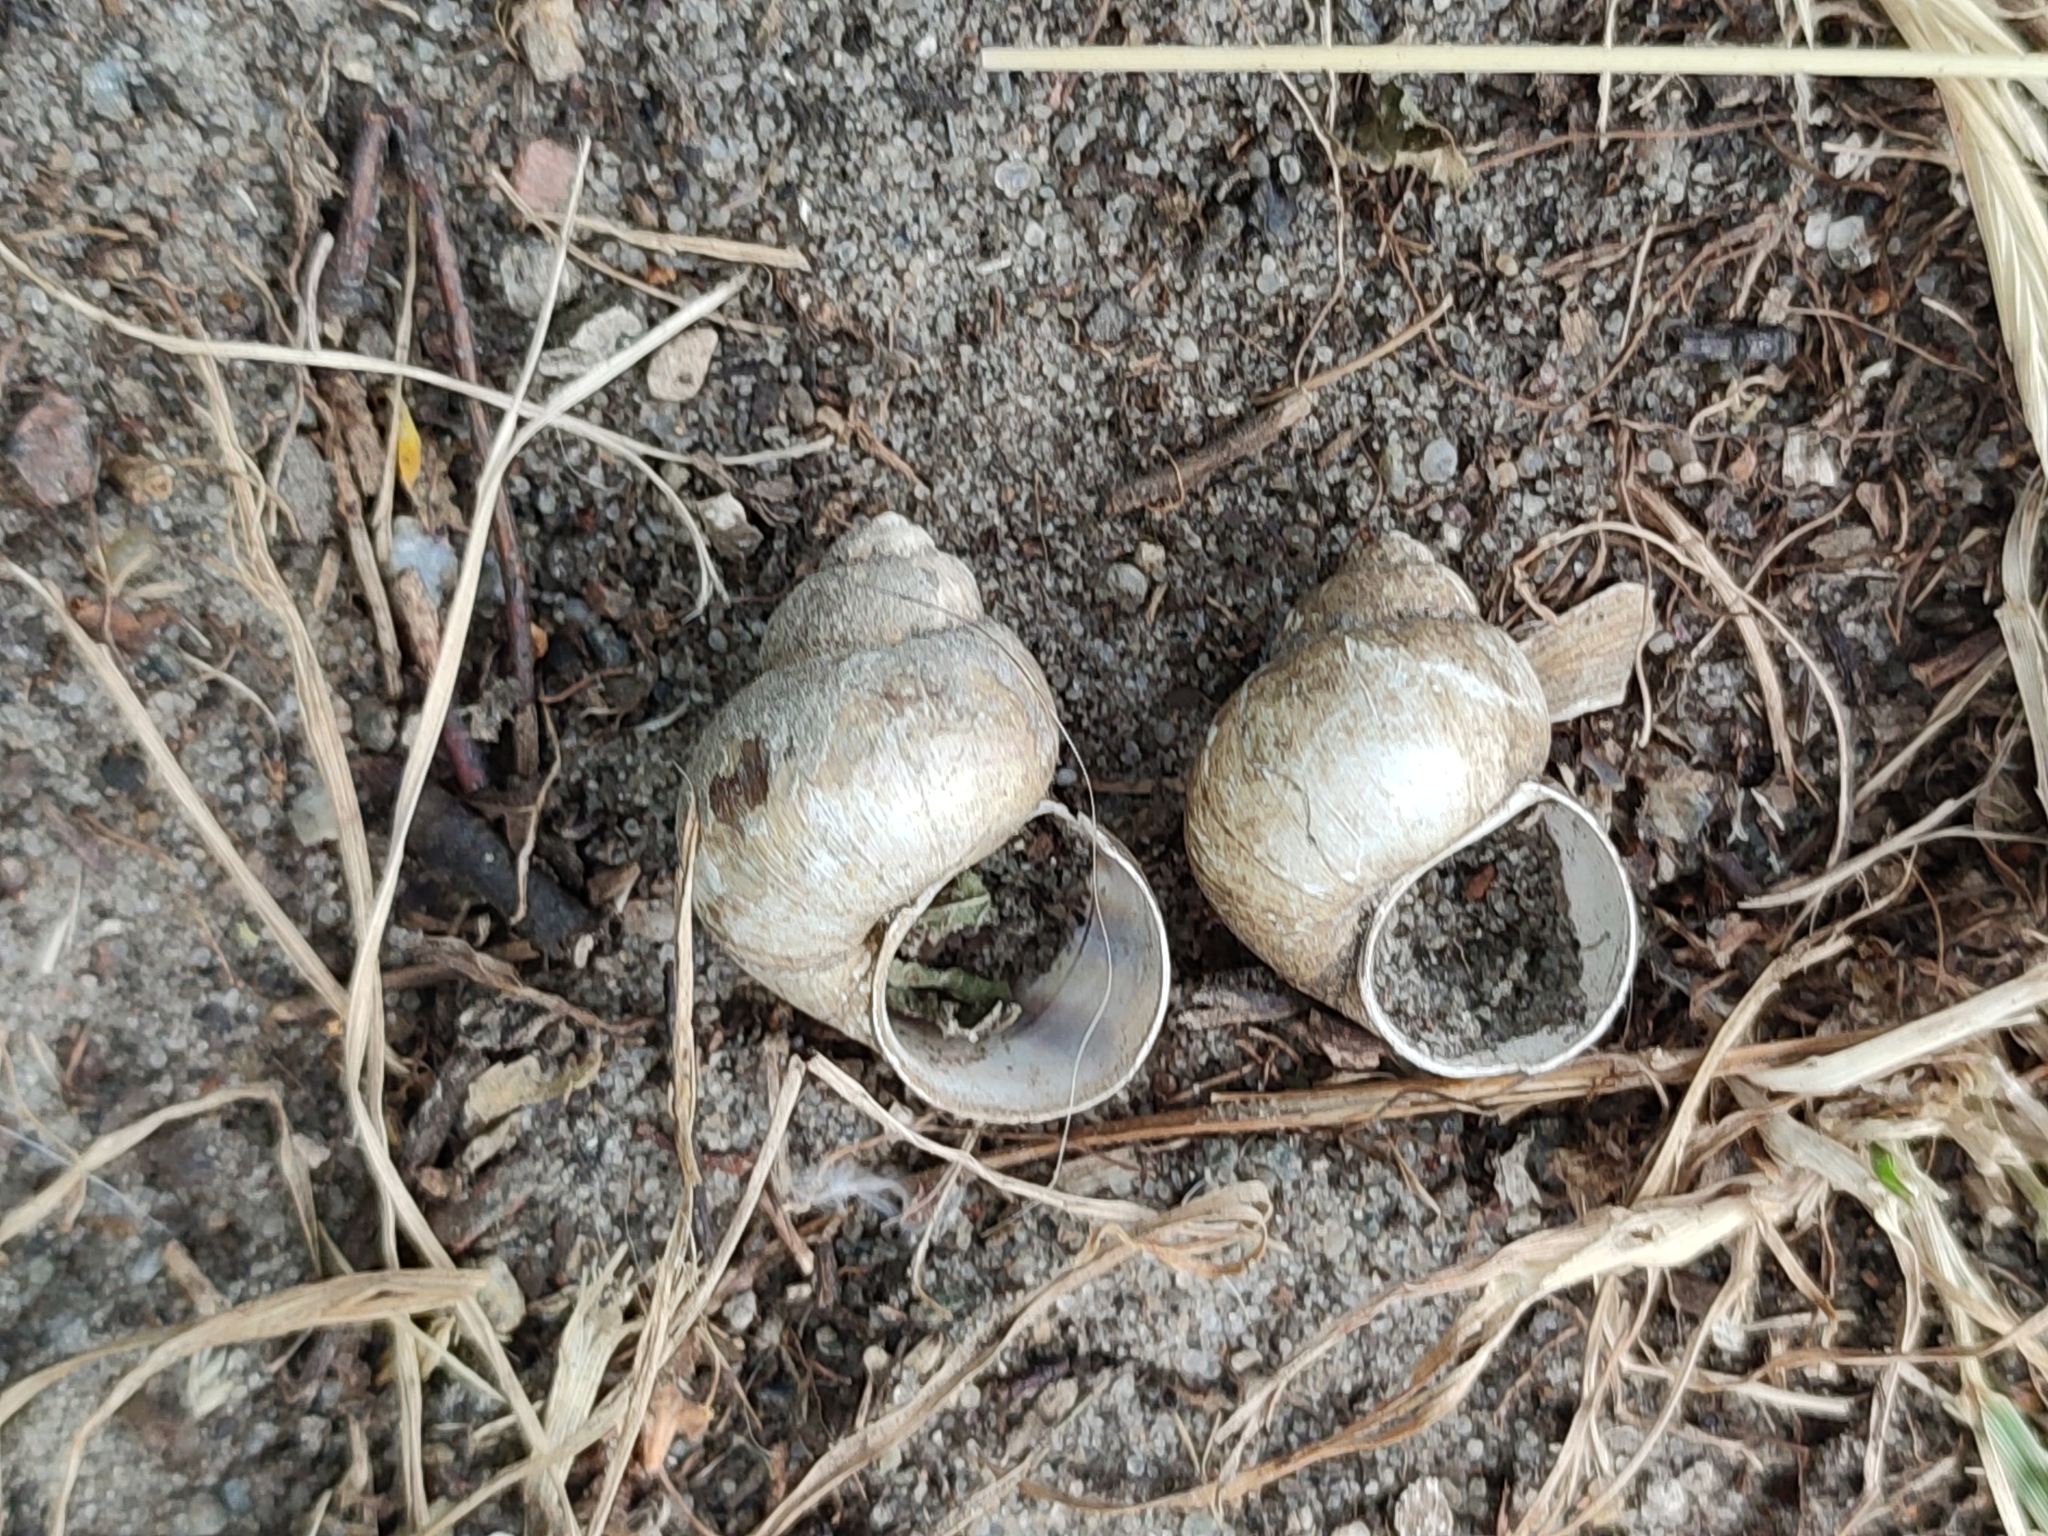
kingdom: Animalia
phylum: Mollusca
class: Gastropoda
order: Architaenioglossa
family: Viviparidae
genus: Viviparus
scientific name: Viviparus viviparus
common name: River snail
